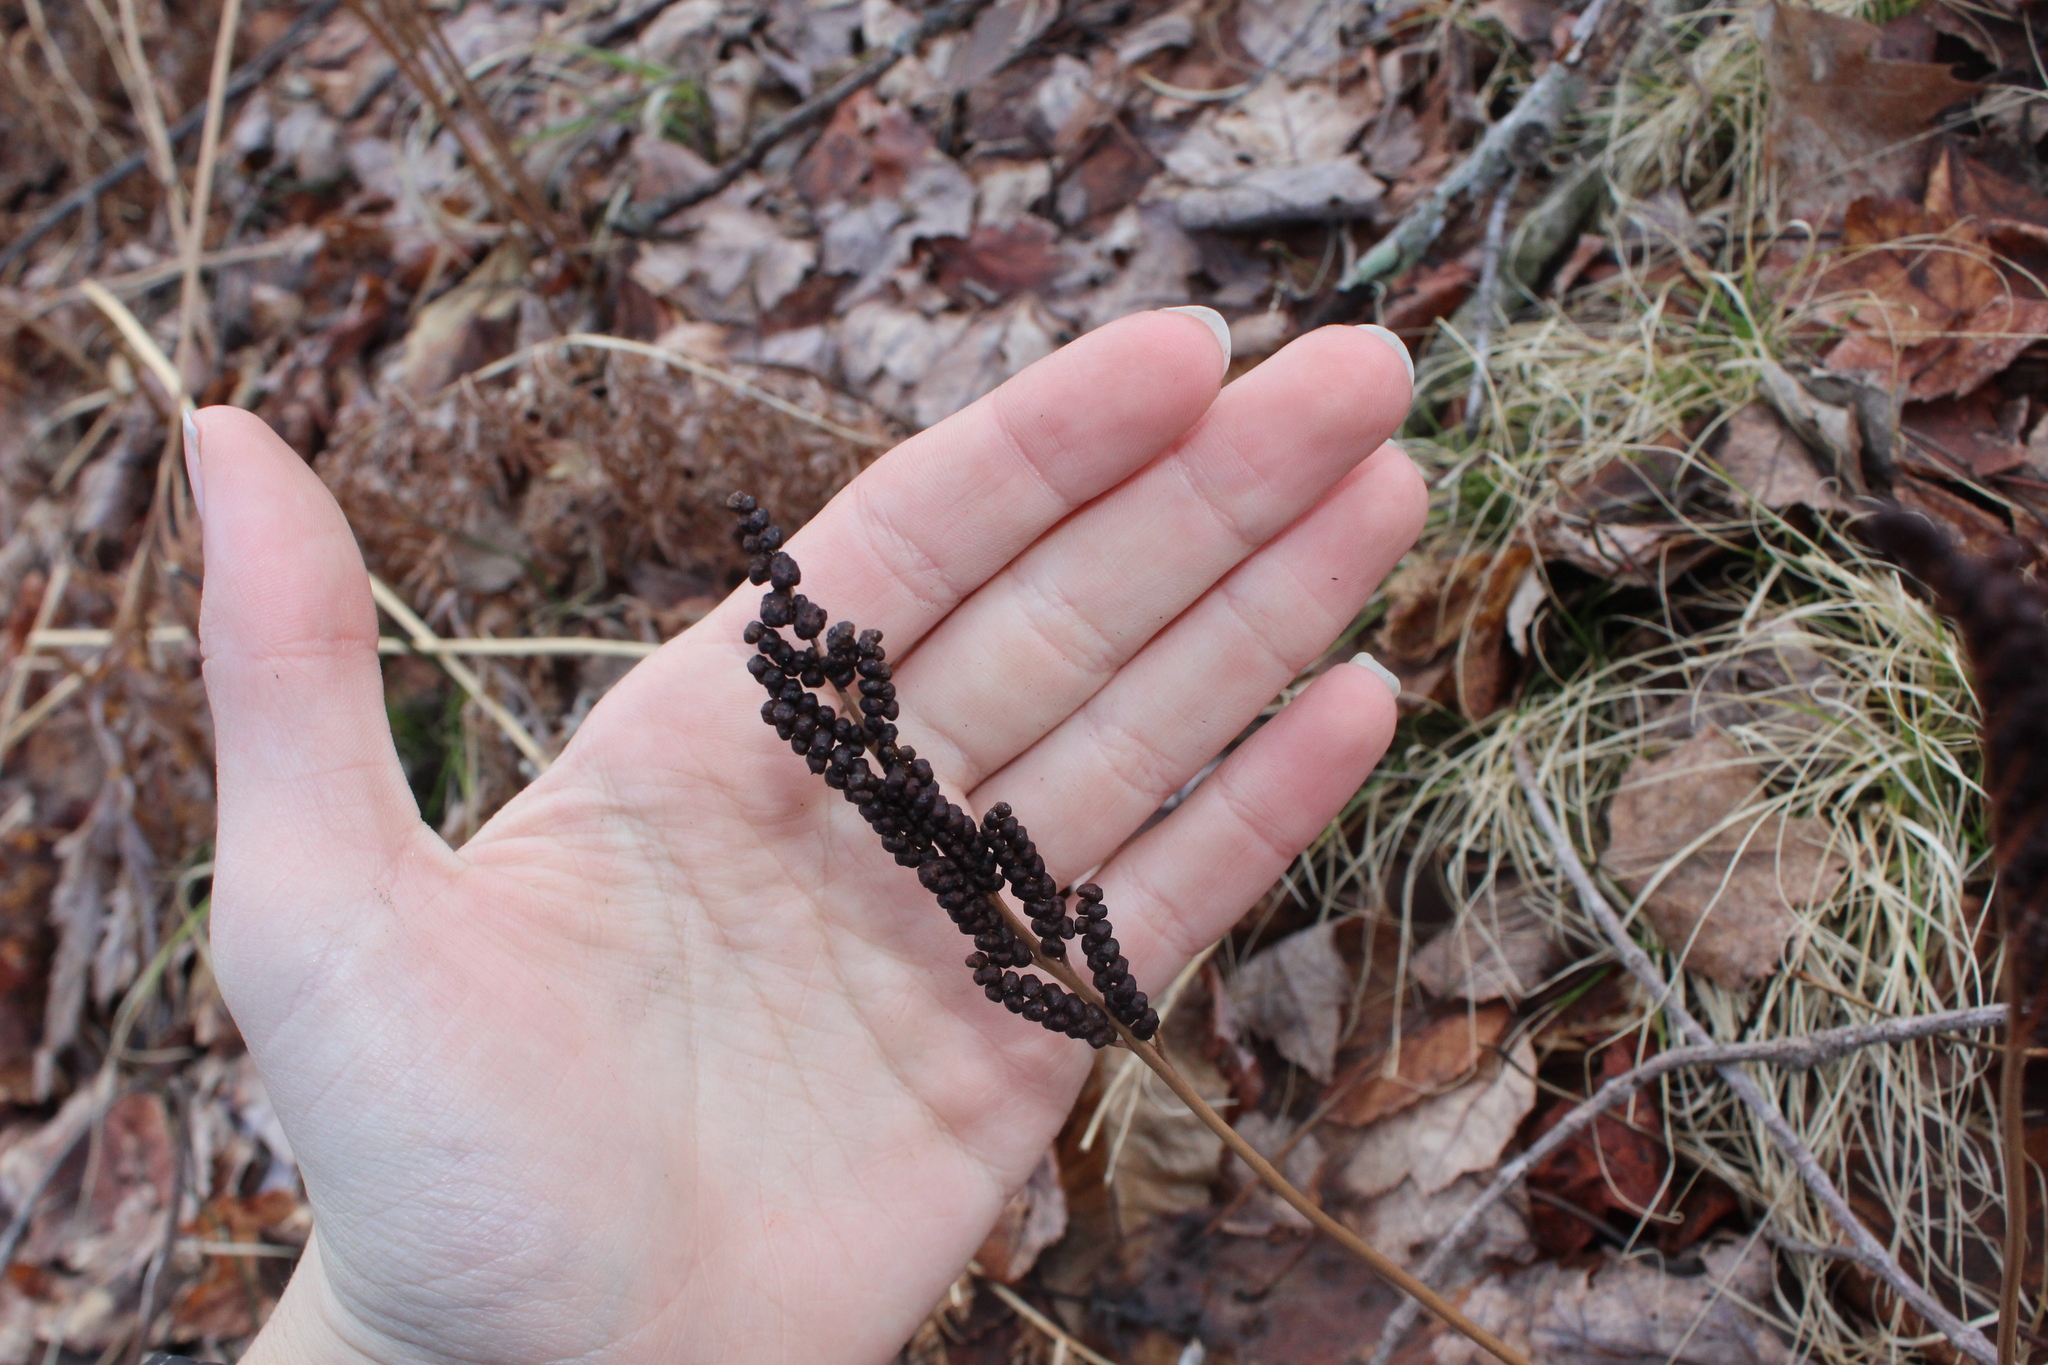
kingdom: Plantae
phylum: Tracheophyta
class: Polypodiopsida
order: Polypodiales
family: Onocleaceae
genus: Onoclea
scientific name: Onoclea sensibilis
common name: Sensitive fern
